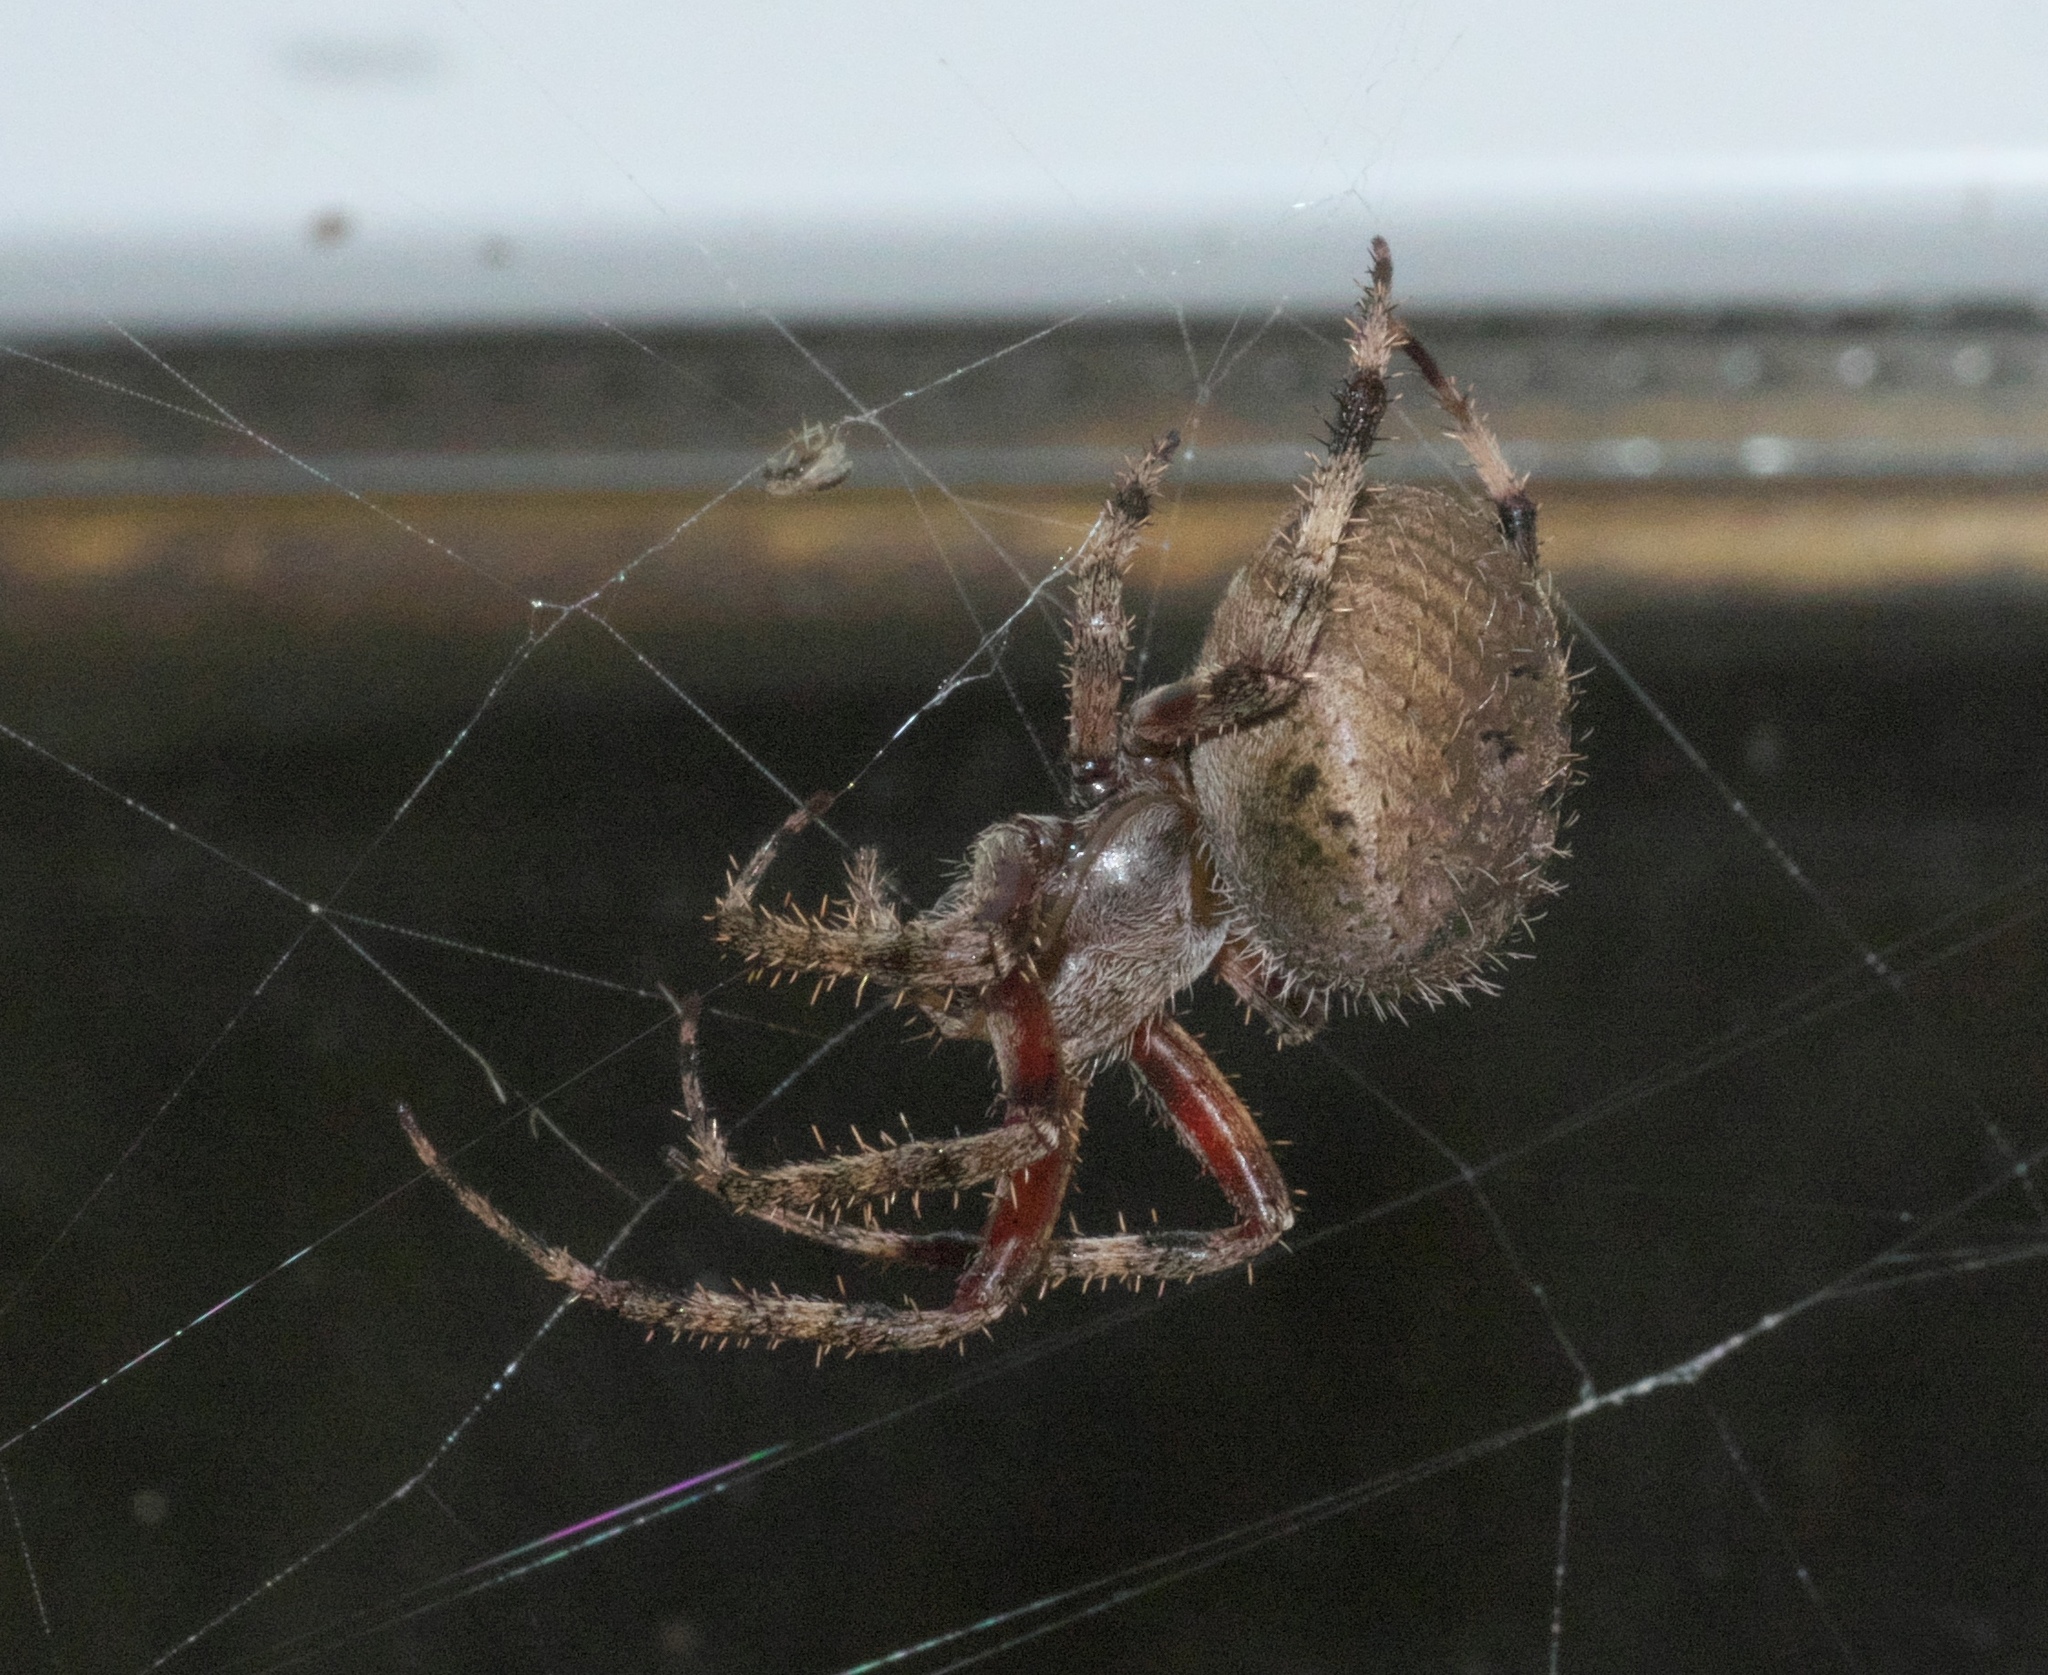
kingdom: Animalia
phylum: Arthropoda
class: Arachnida
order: Araneae
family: Araneidae
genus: Neoscona
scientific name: Neoscona crucifera
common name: Spotted orbweaver
